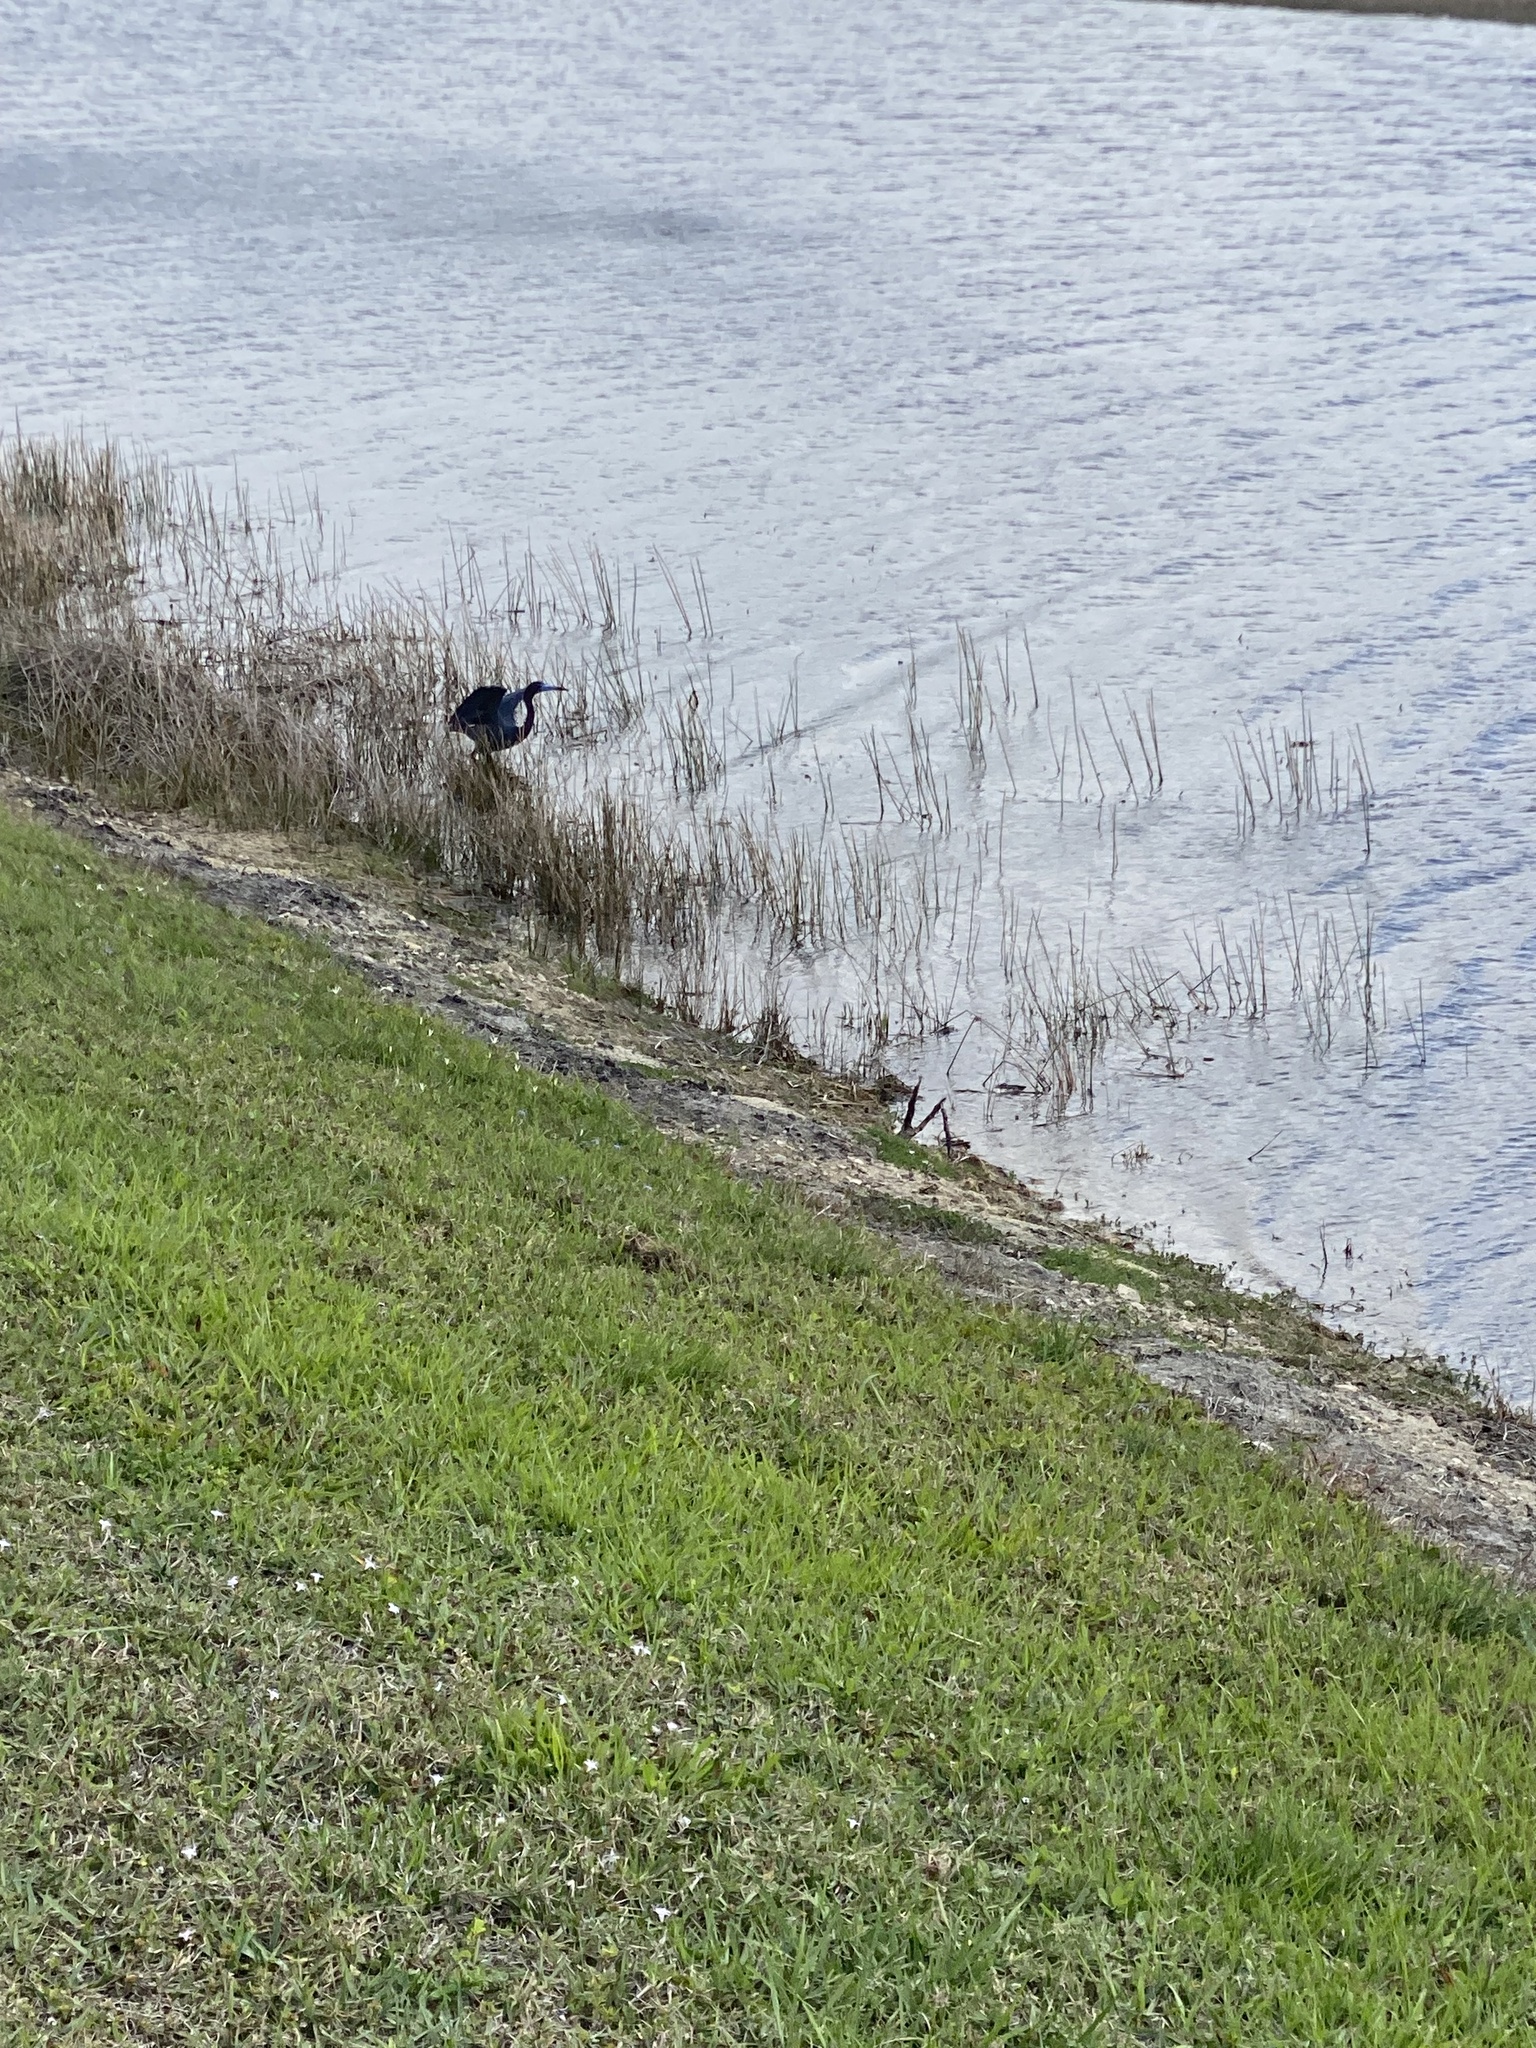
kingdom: Animalia
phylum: Chordata
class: Aves
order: Pelecaniformes
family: Ardeidae
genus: Egretta
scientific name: Egretta caerulea
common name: Little blue heron
